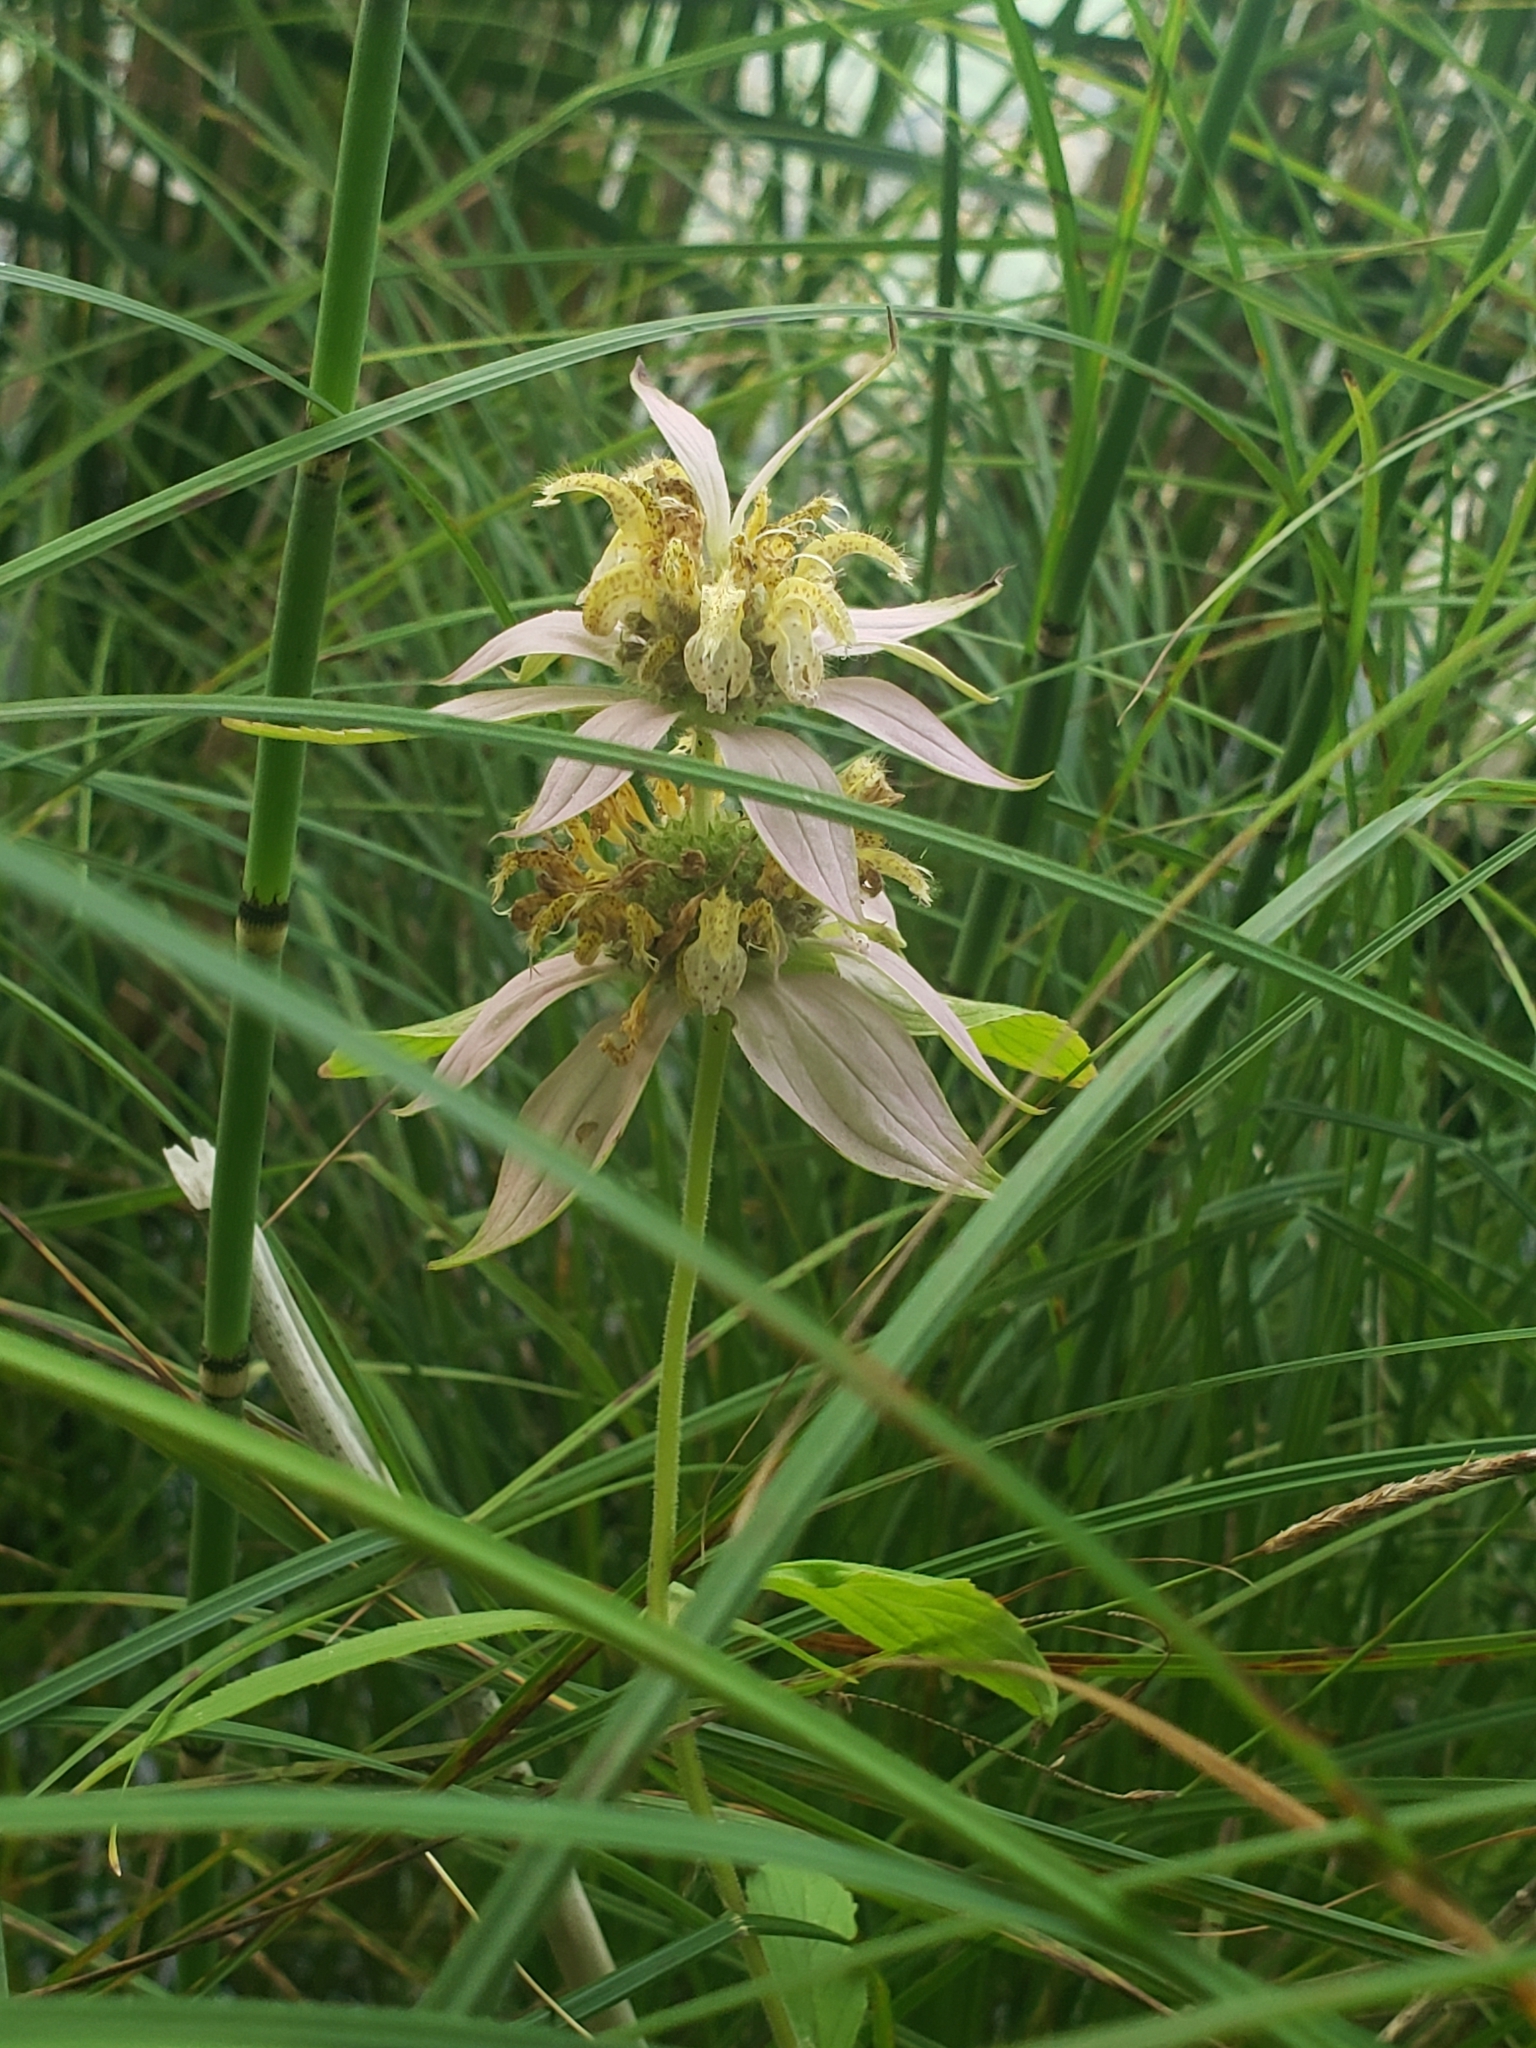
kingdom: Plantae
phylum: Tracheophyta
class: Magnoliopsida
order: Lamiales
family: Lamiaceae
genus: Monarda
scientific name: Monarda punctata
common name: Dotted monarda
